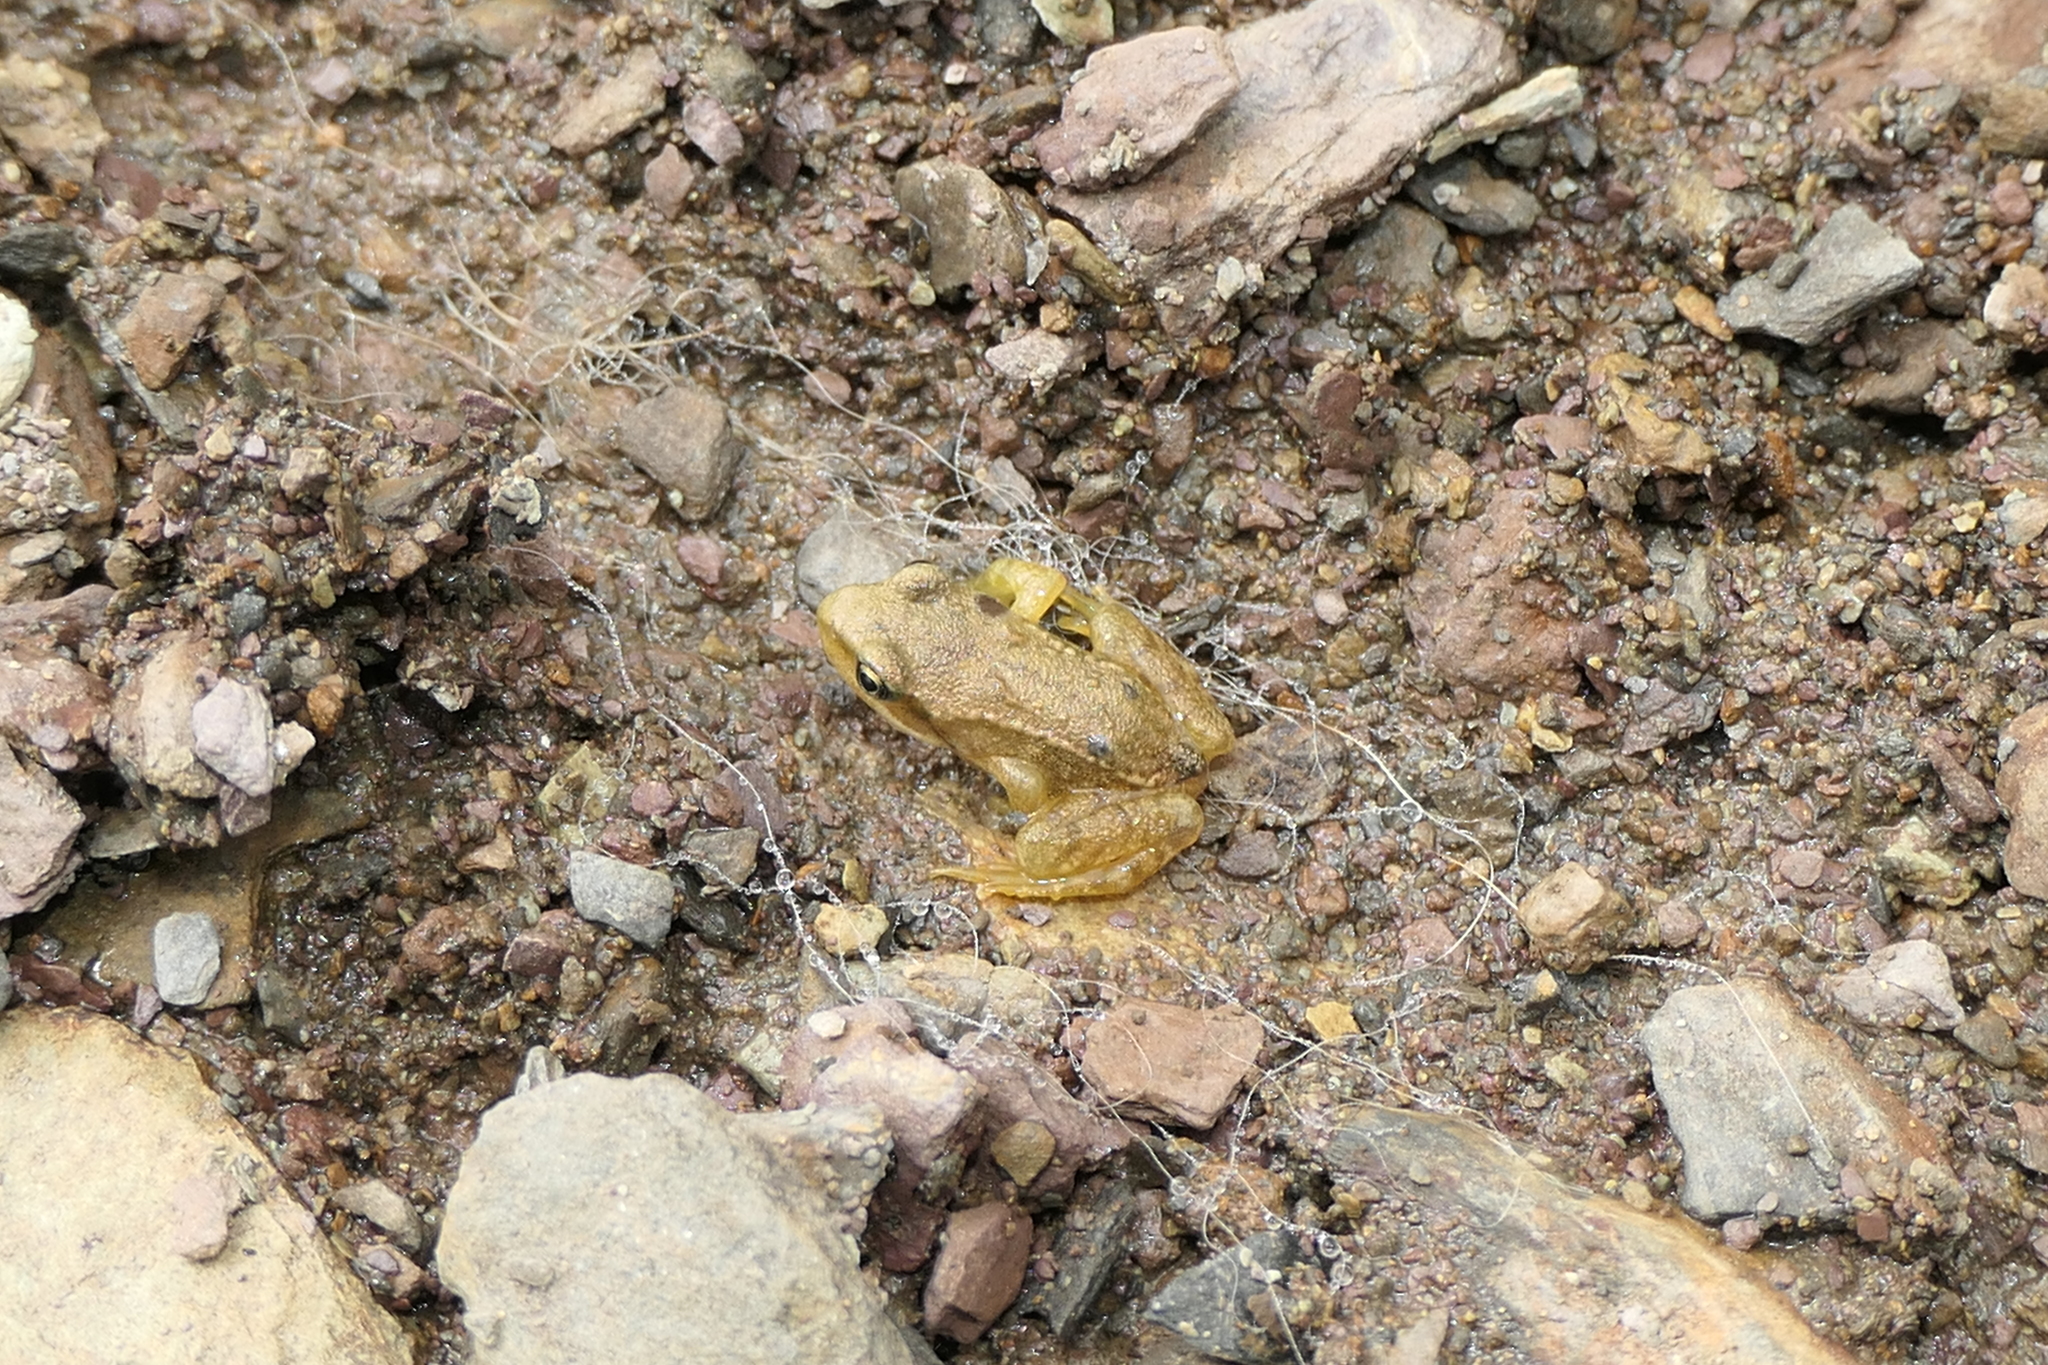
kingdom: Animalia
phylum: Chordata
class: Amphibia
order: Anura
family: Ranidae
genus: Rana
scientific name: Rana temporaria
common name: Common frog
